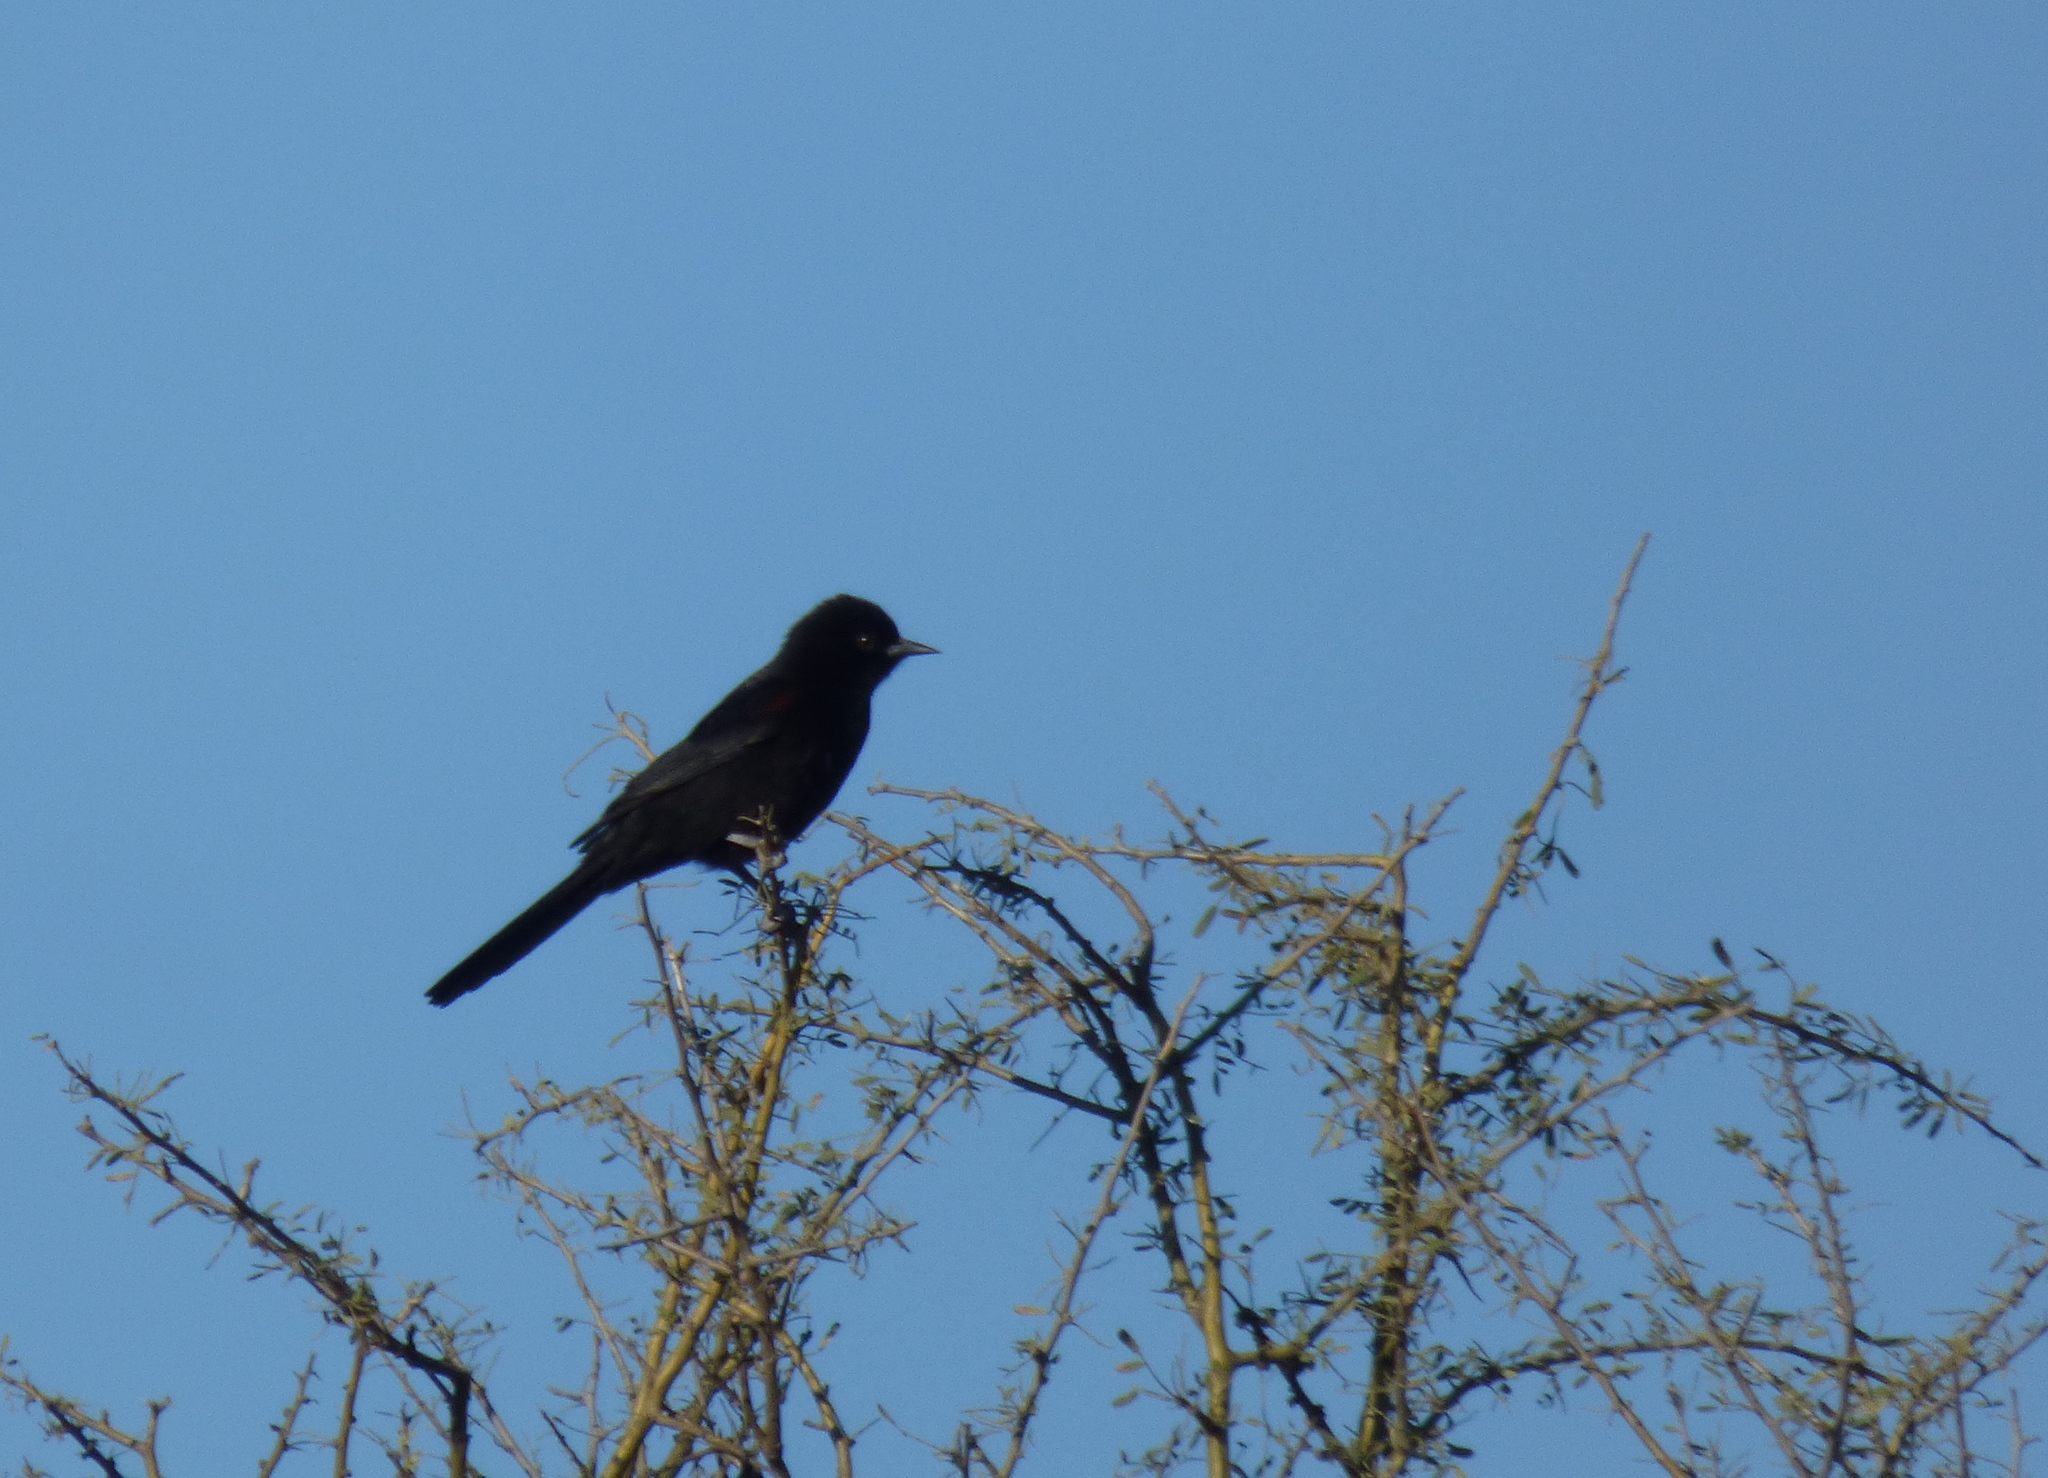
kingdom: Animalia
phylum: Chordata
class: Aves
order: Passeriformes
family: Icteridae
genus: Icterus
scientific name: Icterus cayanensis
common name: Epaulet oriole
